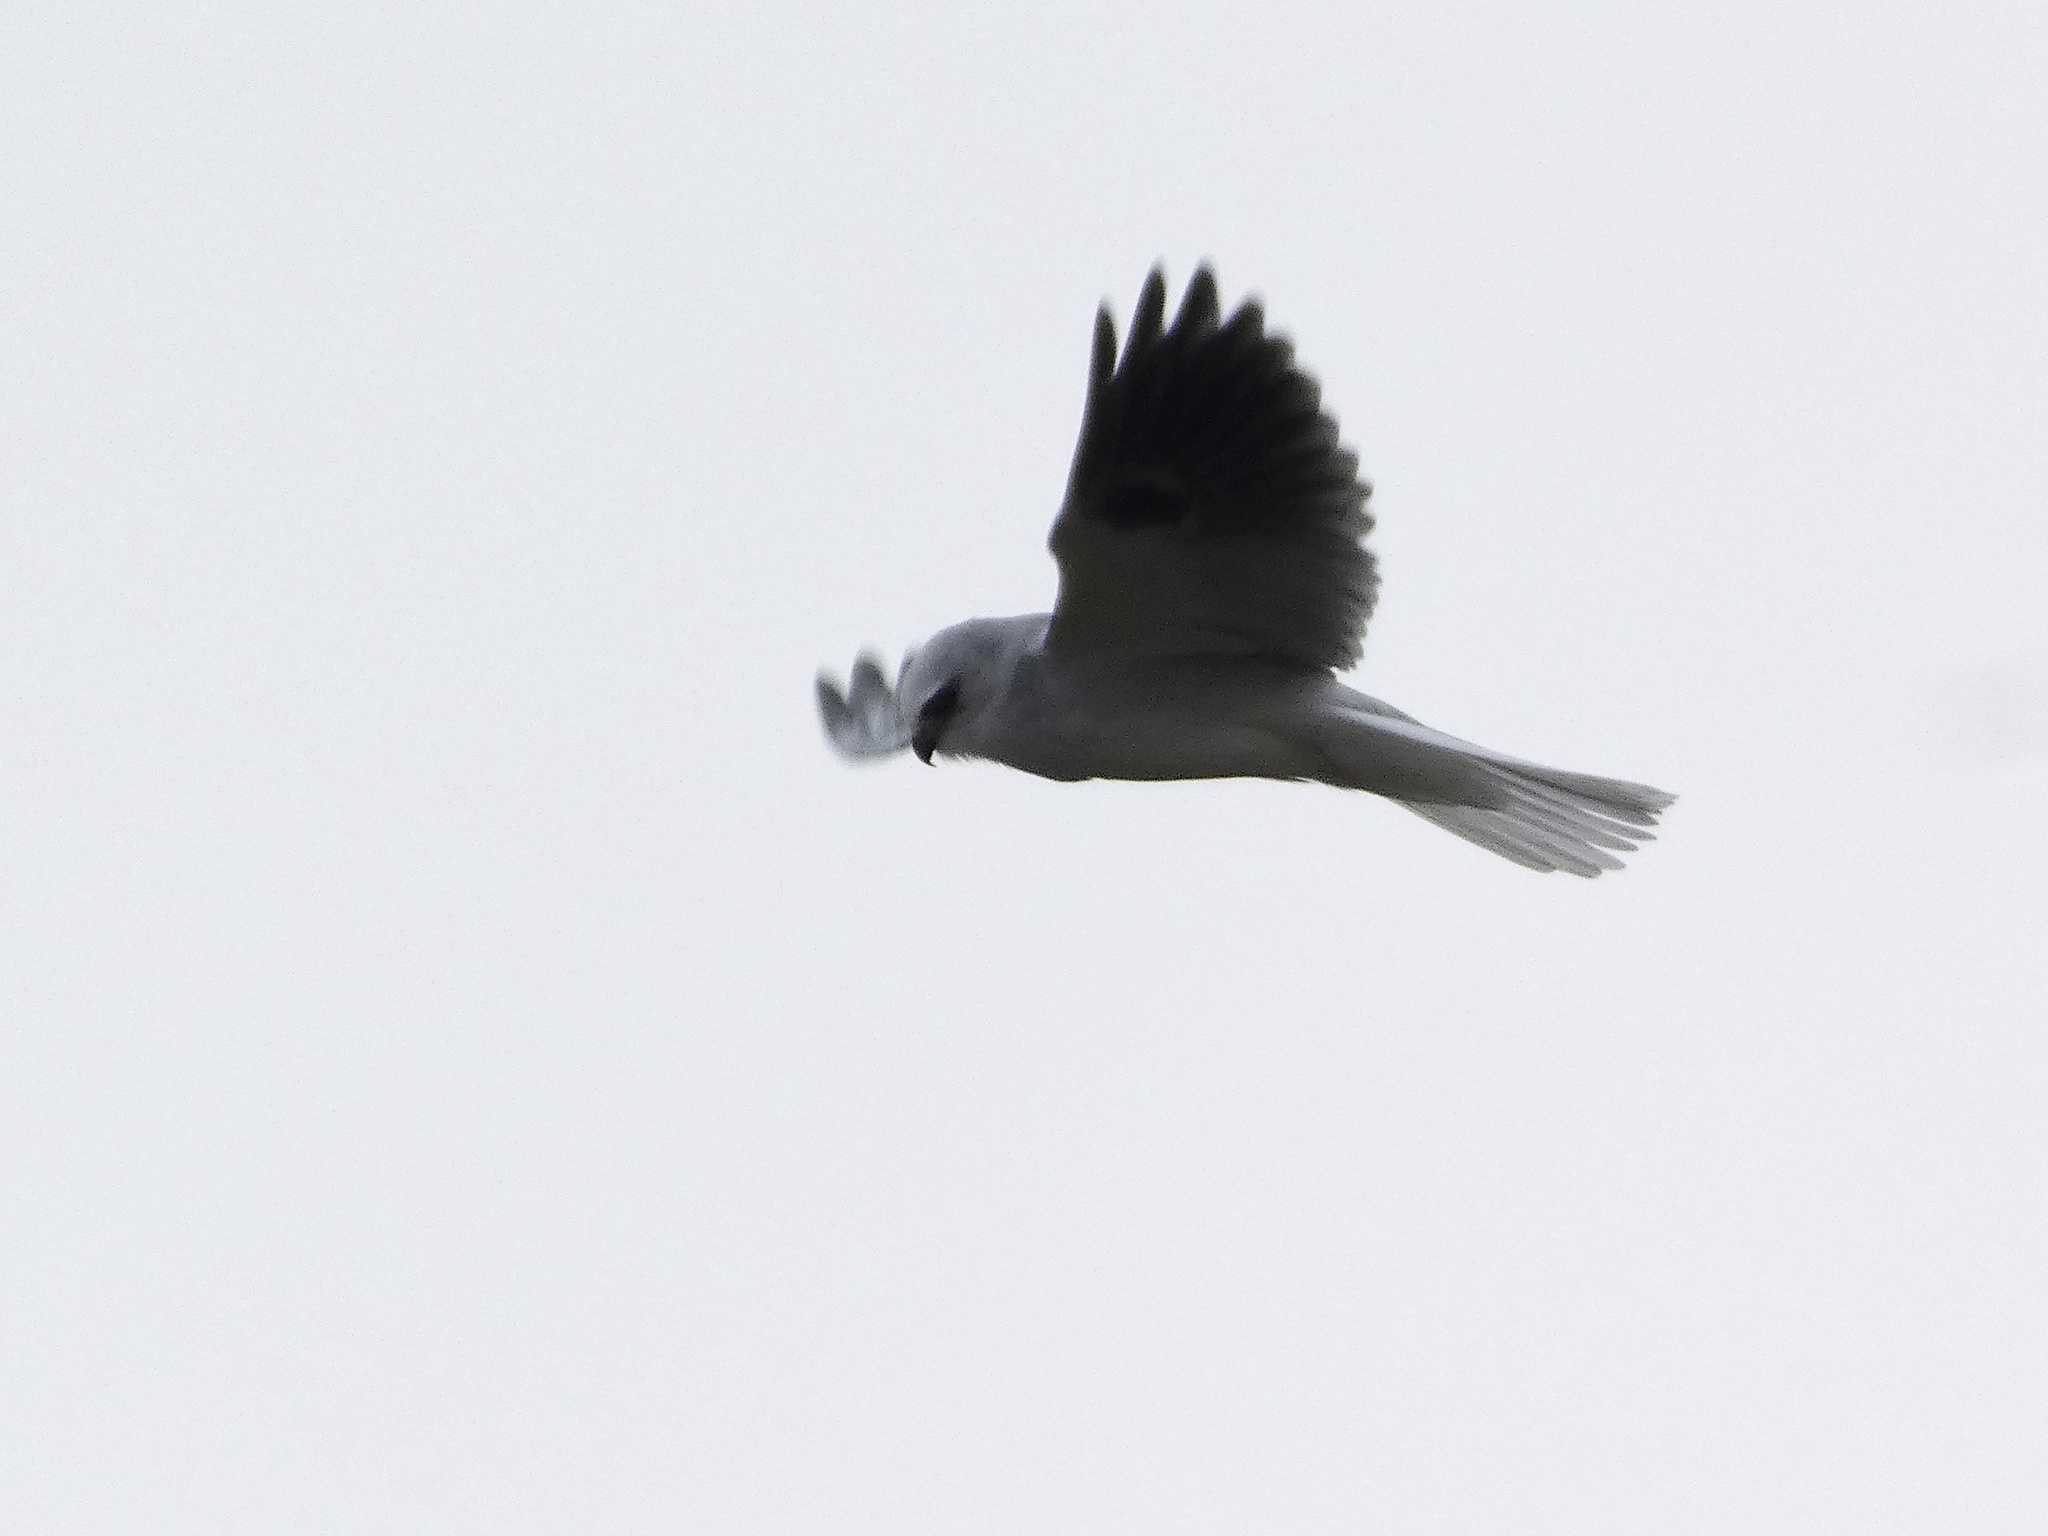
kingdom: Animalia
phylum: Chordata
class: Aves
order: Accipitriformes
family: Accipitridae
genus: Elanus
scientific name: Elanus leucurus
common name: White-tailed kite
